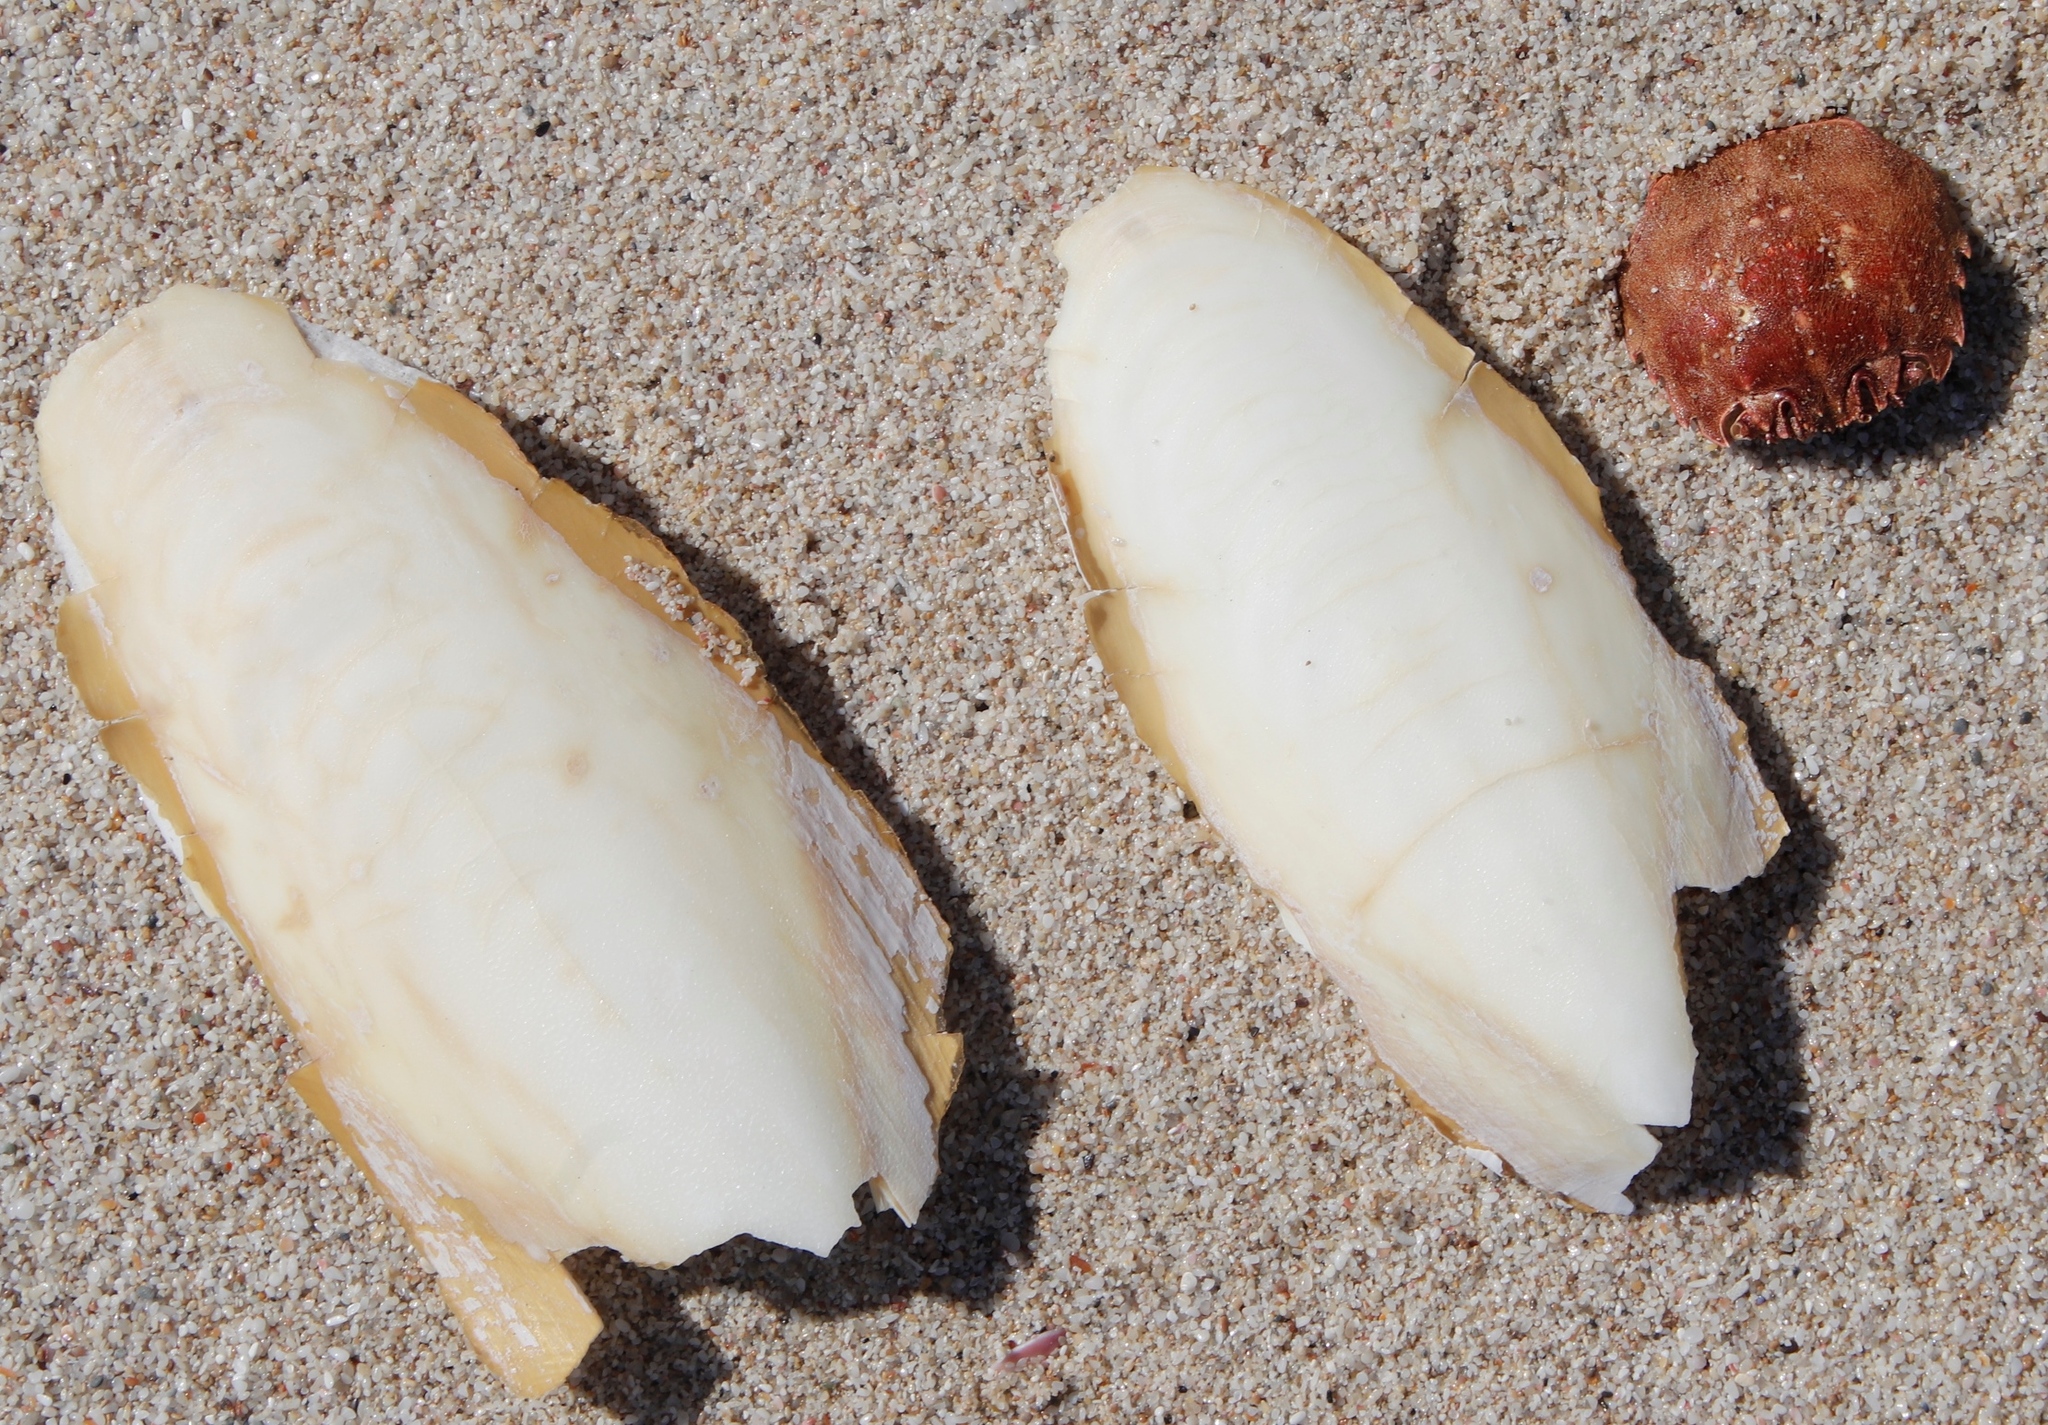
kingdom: Animalia
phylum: Mollusca
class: Cephalopoda
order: Sepiida
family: Sepiidae
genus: Sepia
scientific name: Sepia vermiculata
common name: Patchwork cuttlefish
